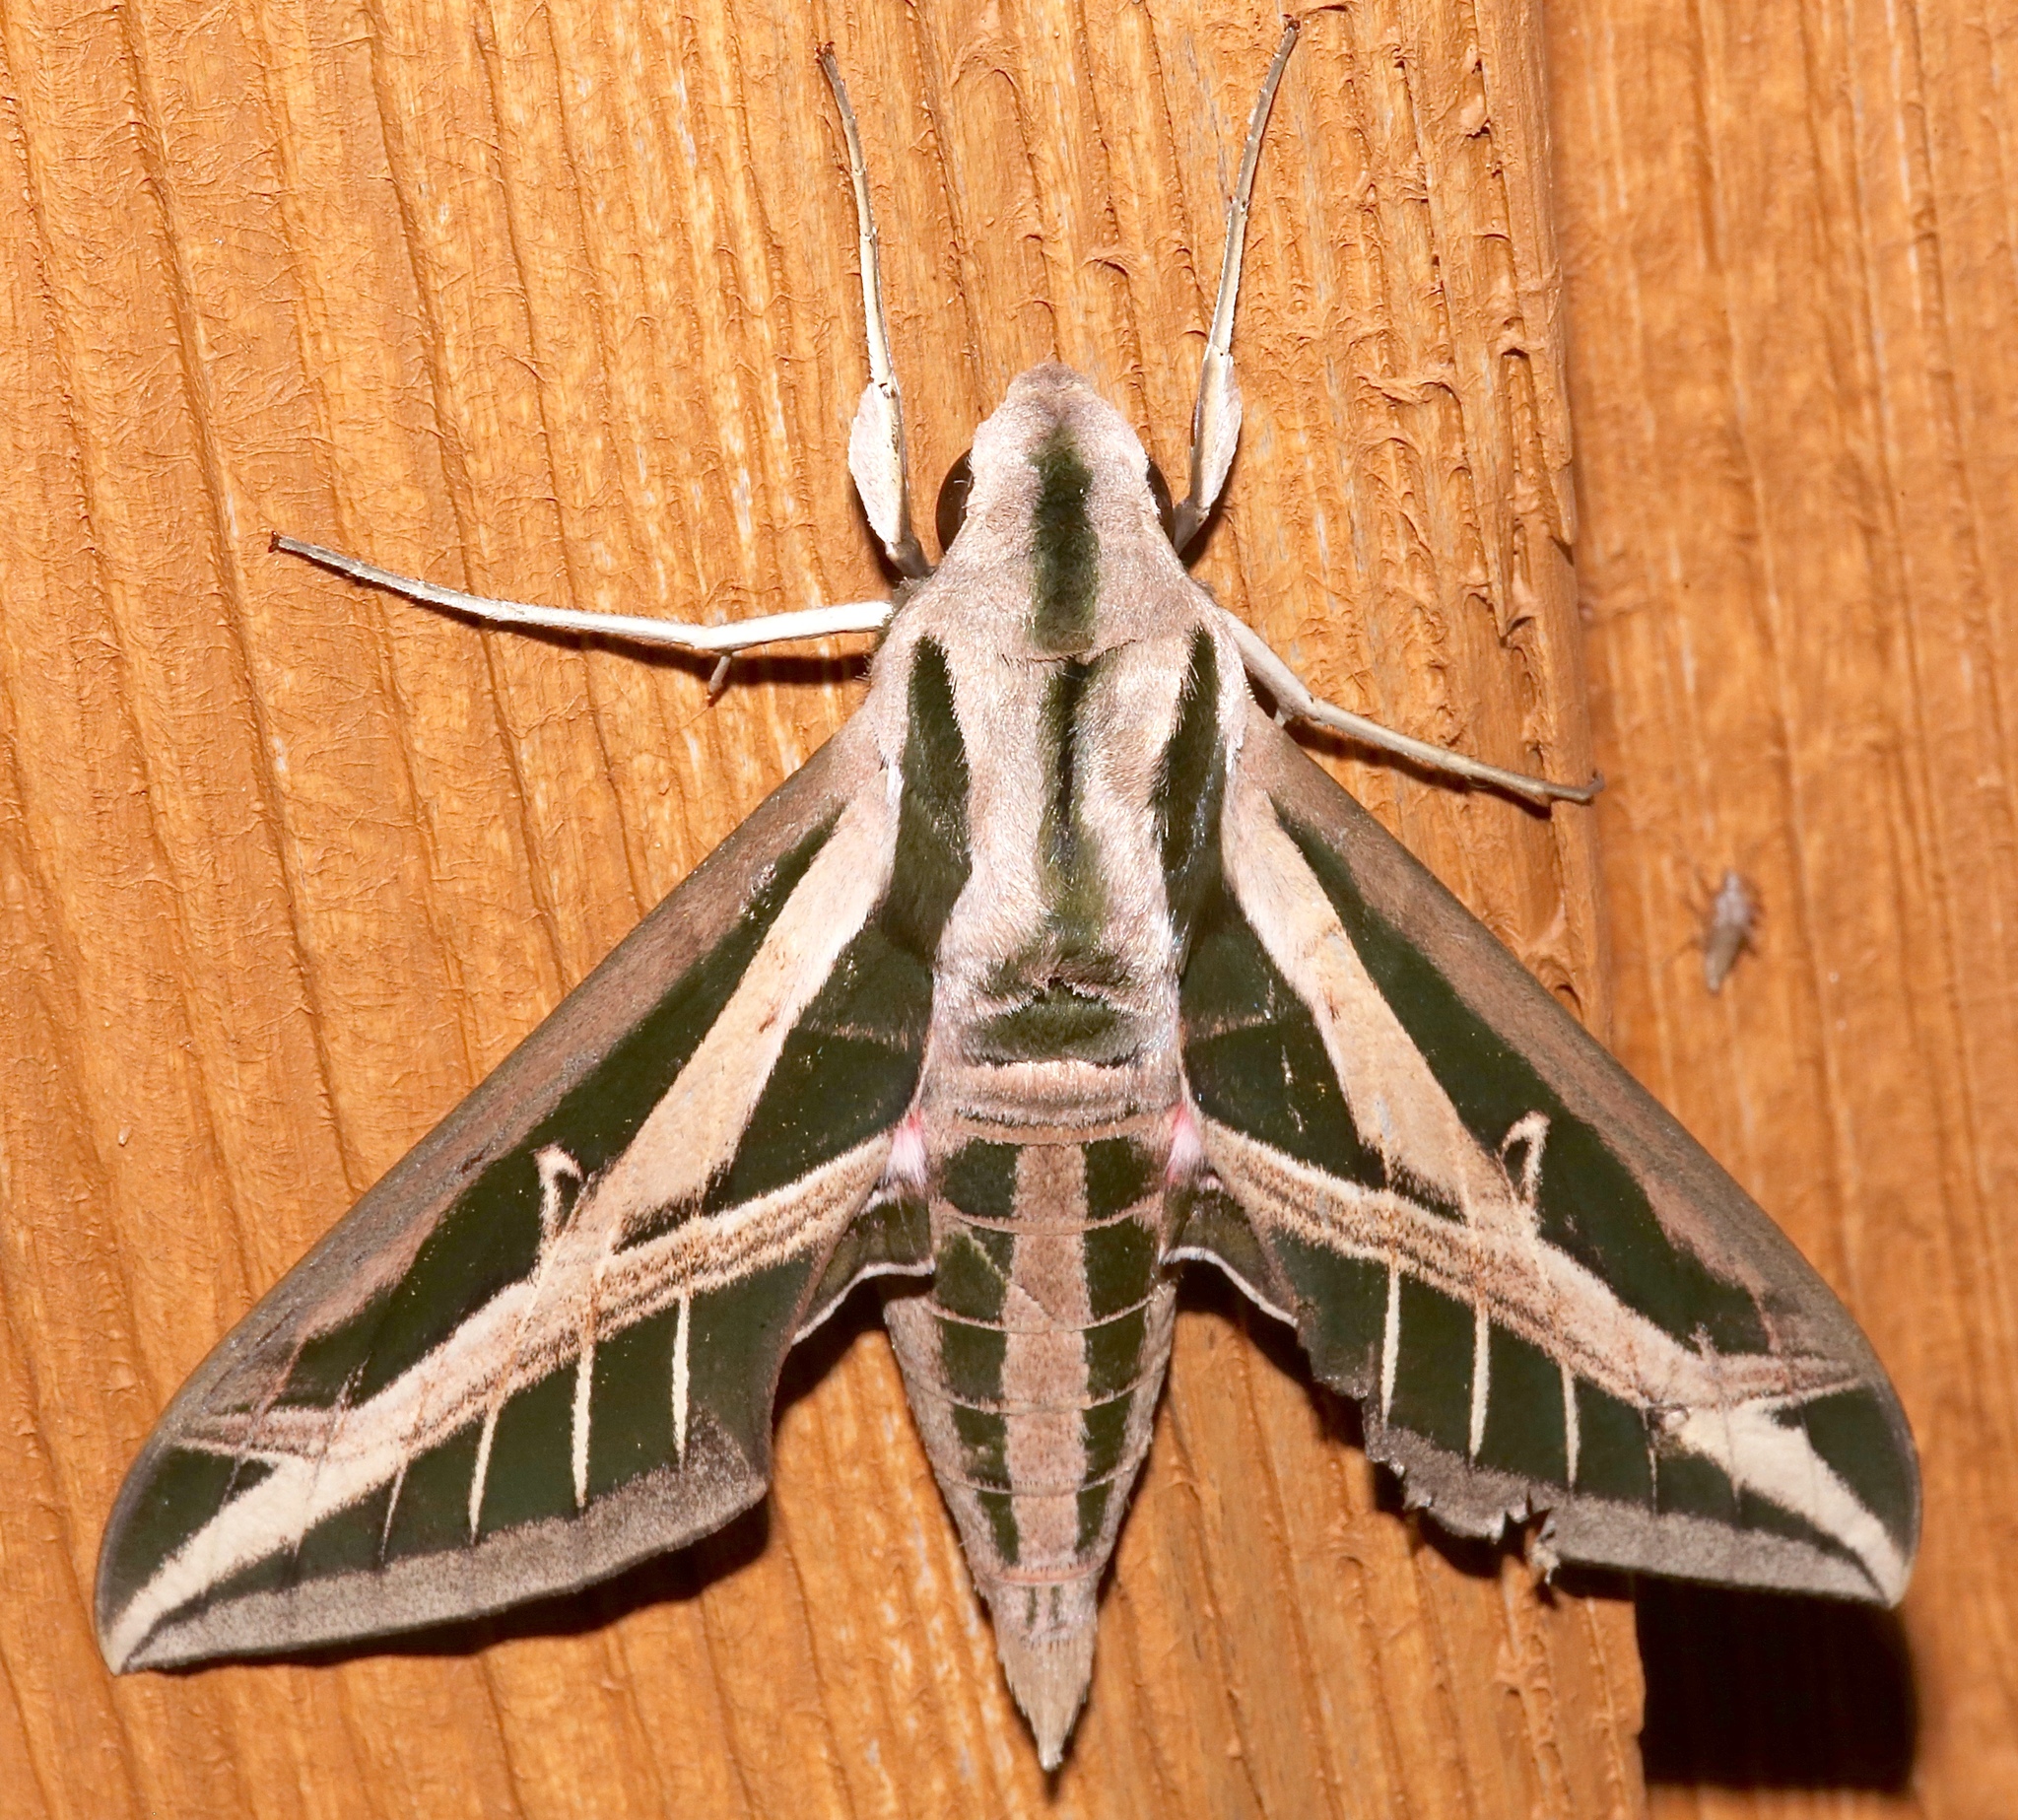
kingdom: Animalia
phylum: Arthropoda
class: Insecta
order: Lepidoptera
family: Sphingidae
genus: Eumorpha
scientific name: Eumorpha fasciatus
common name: Banded sphinx
